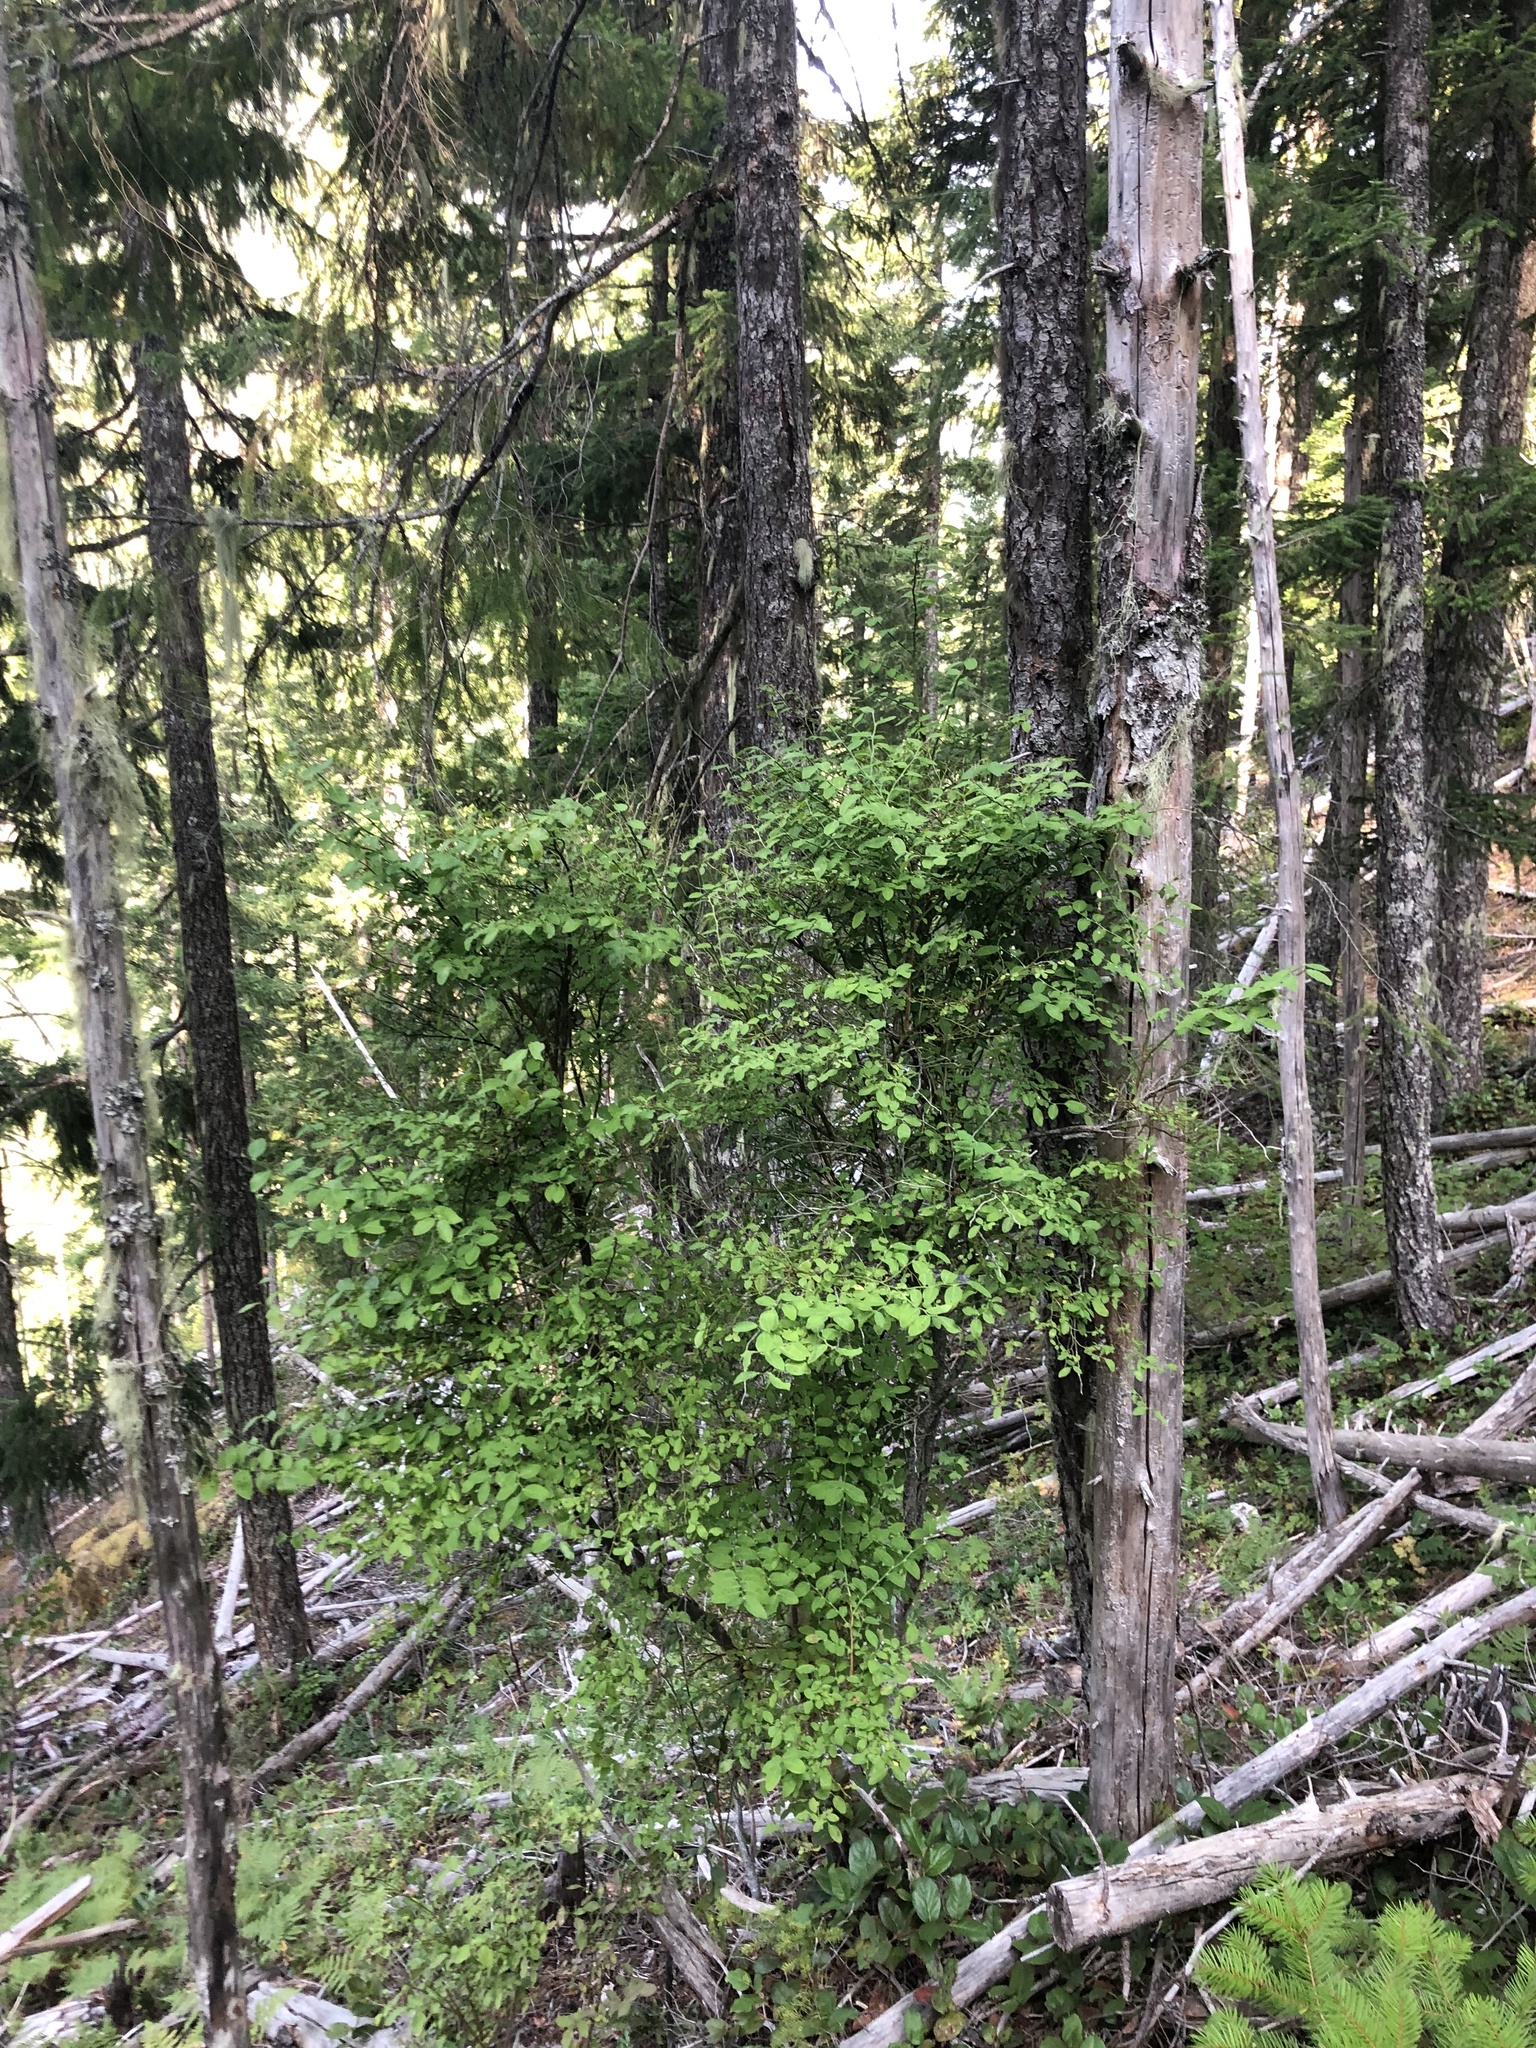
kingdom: Plantae
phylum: Tracheophyta
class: Magnoliopsida
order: Ericales
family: Ericaceae
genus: Vaccinium
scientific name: Vaccinium parvifolium
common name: Red-huckleberry
